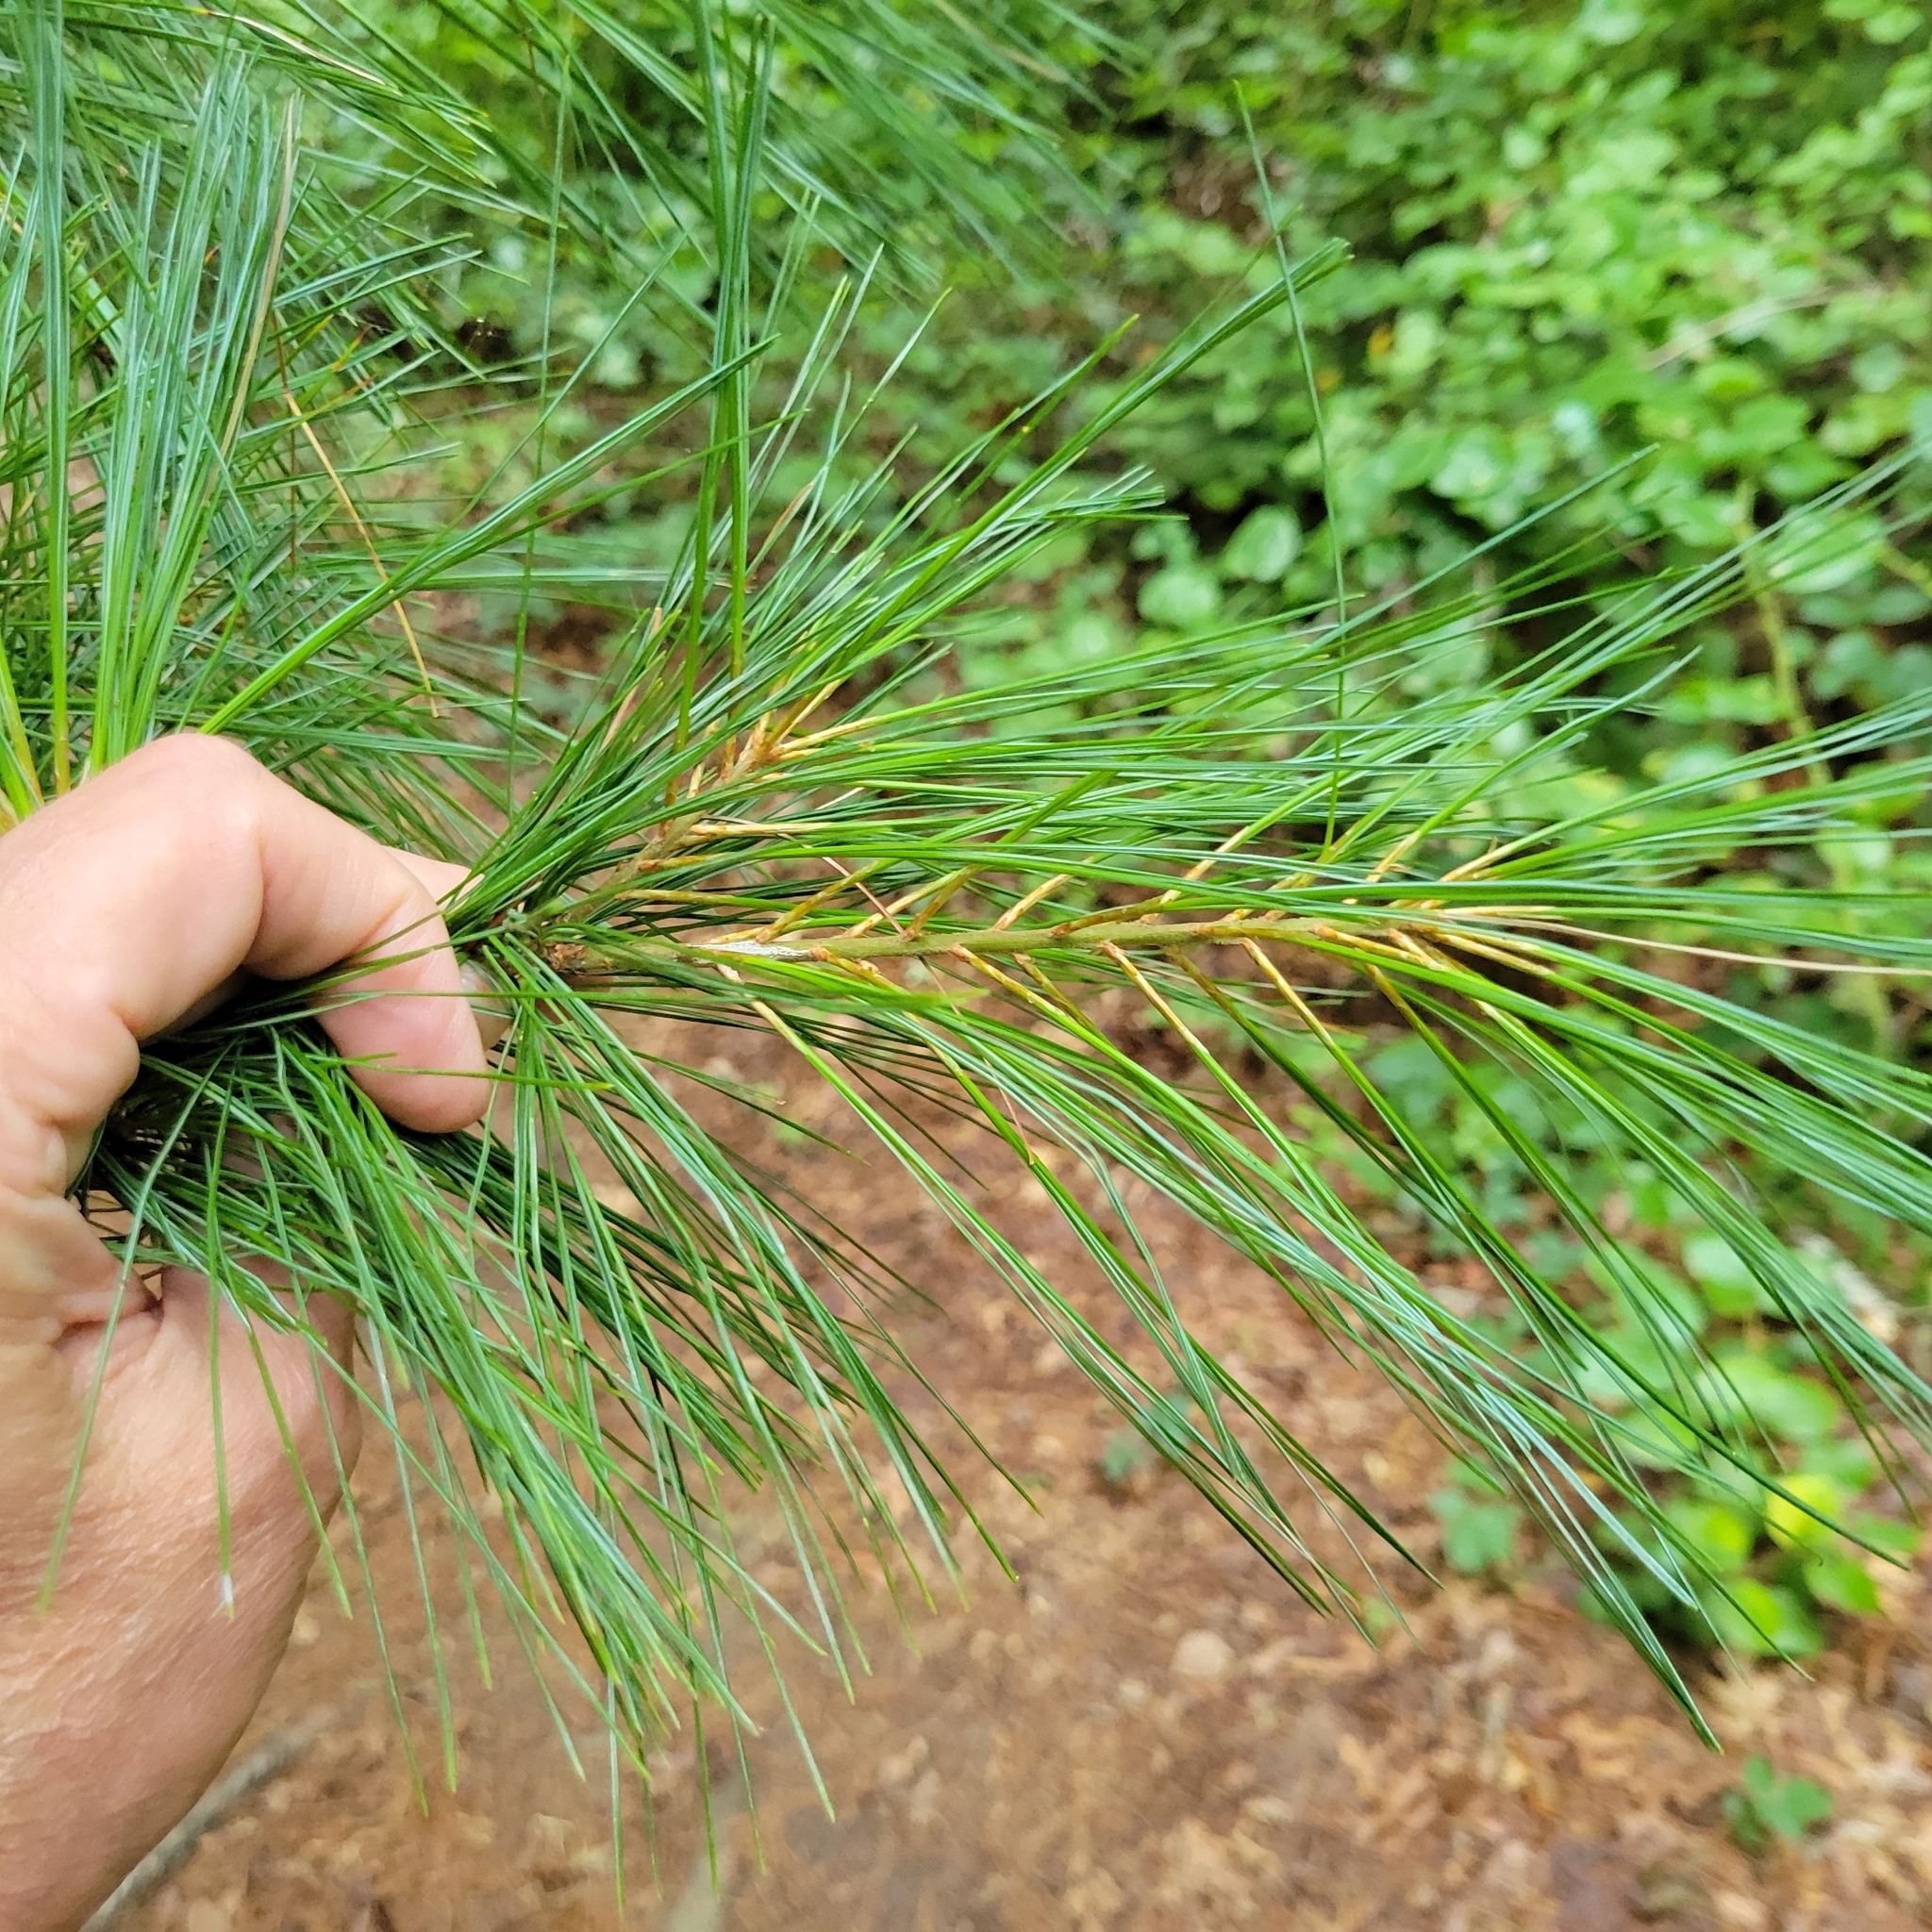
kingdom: Plantae
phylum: Tracheophyta
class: Pinopsida
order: Pinales
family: Pinaceae
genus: Pinus
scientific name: Pinus strobus
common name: Weymouth pine
